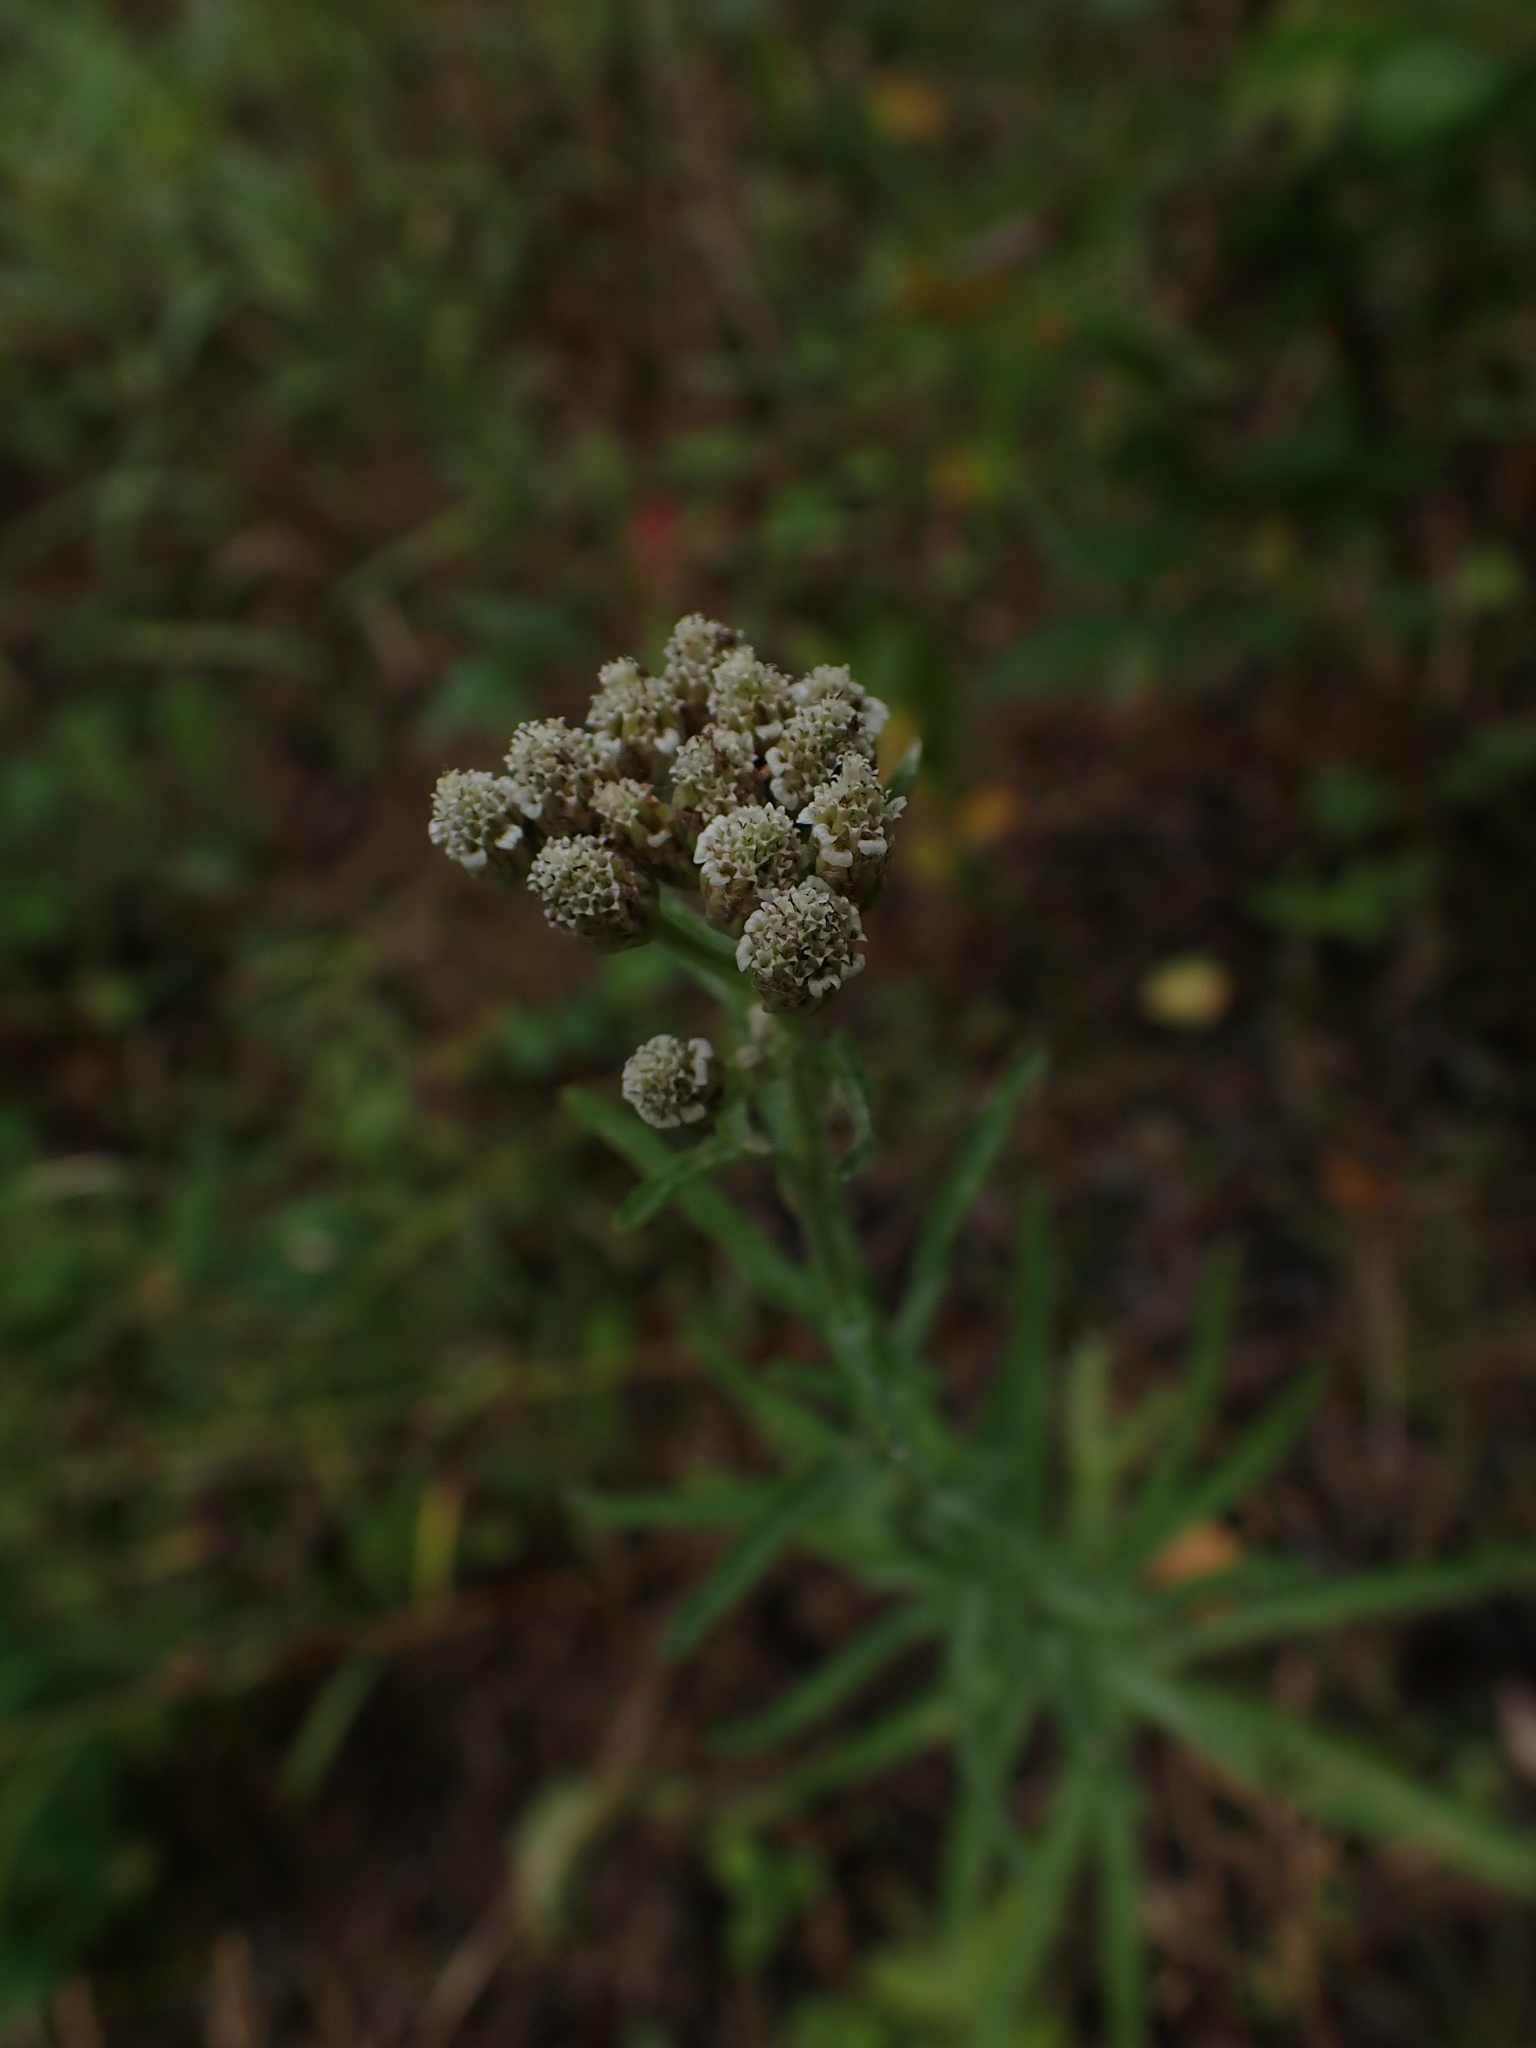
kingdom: Plantae
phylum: Tracheophyta
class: Magnoliopsida
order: Asterales
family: Asteraceae
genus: Achillea
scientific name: Achillea alpina
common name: Siberian yarrow
